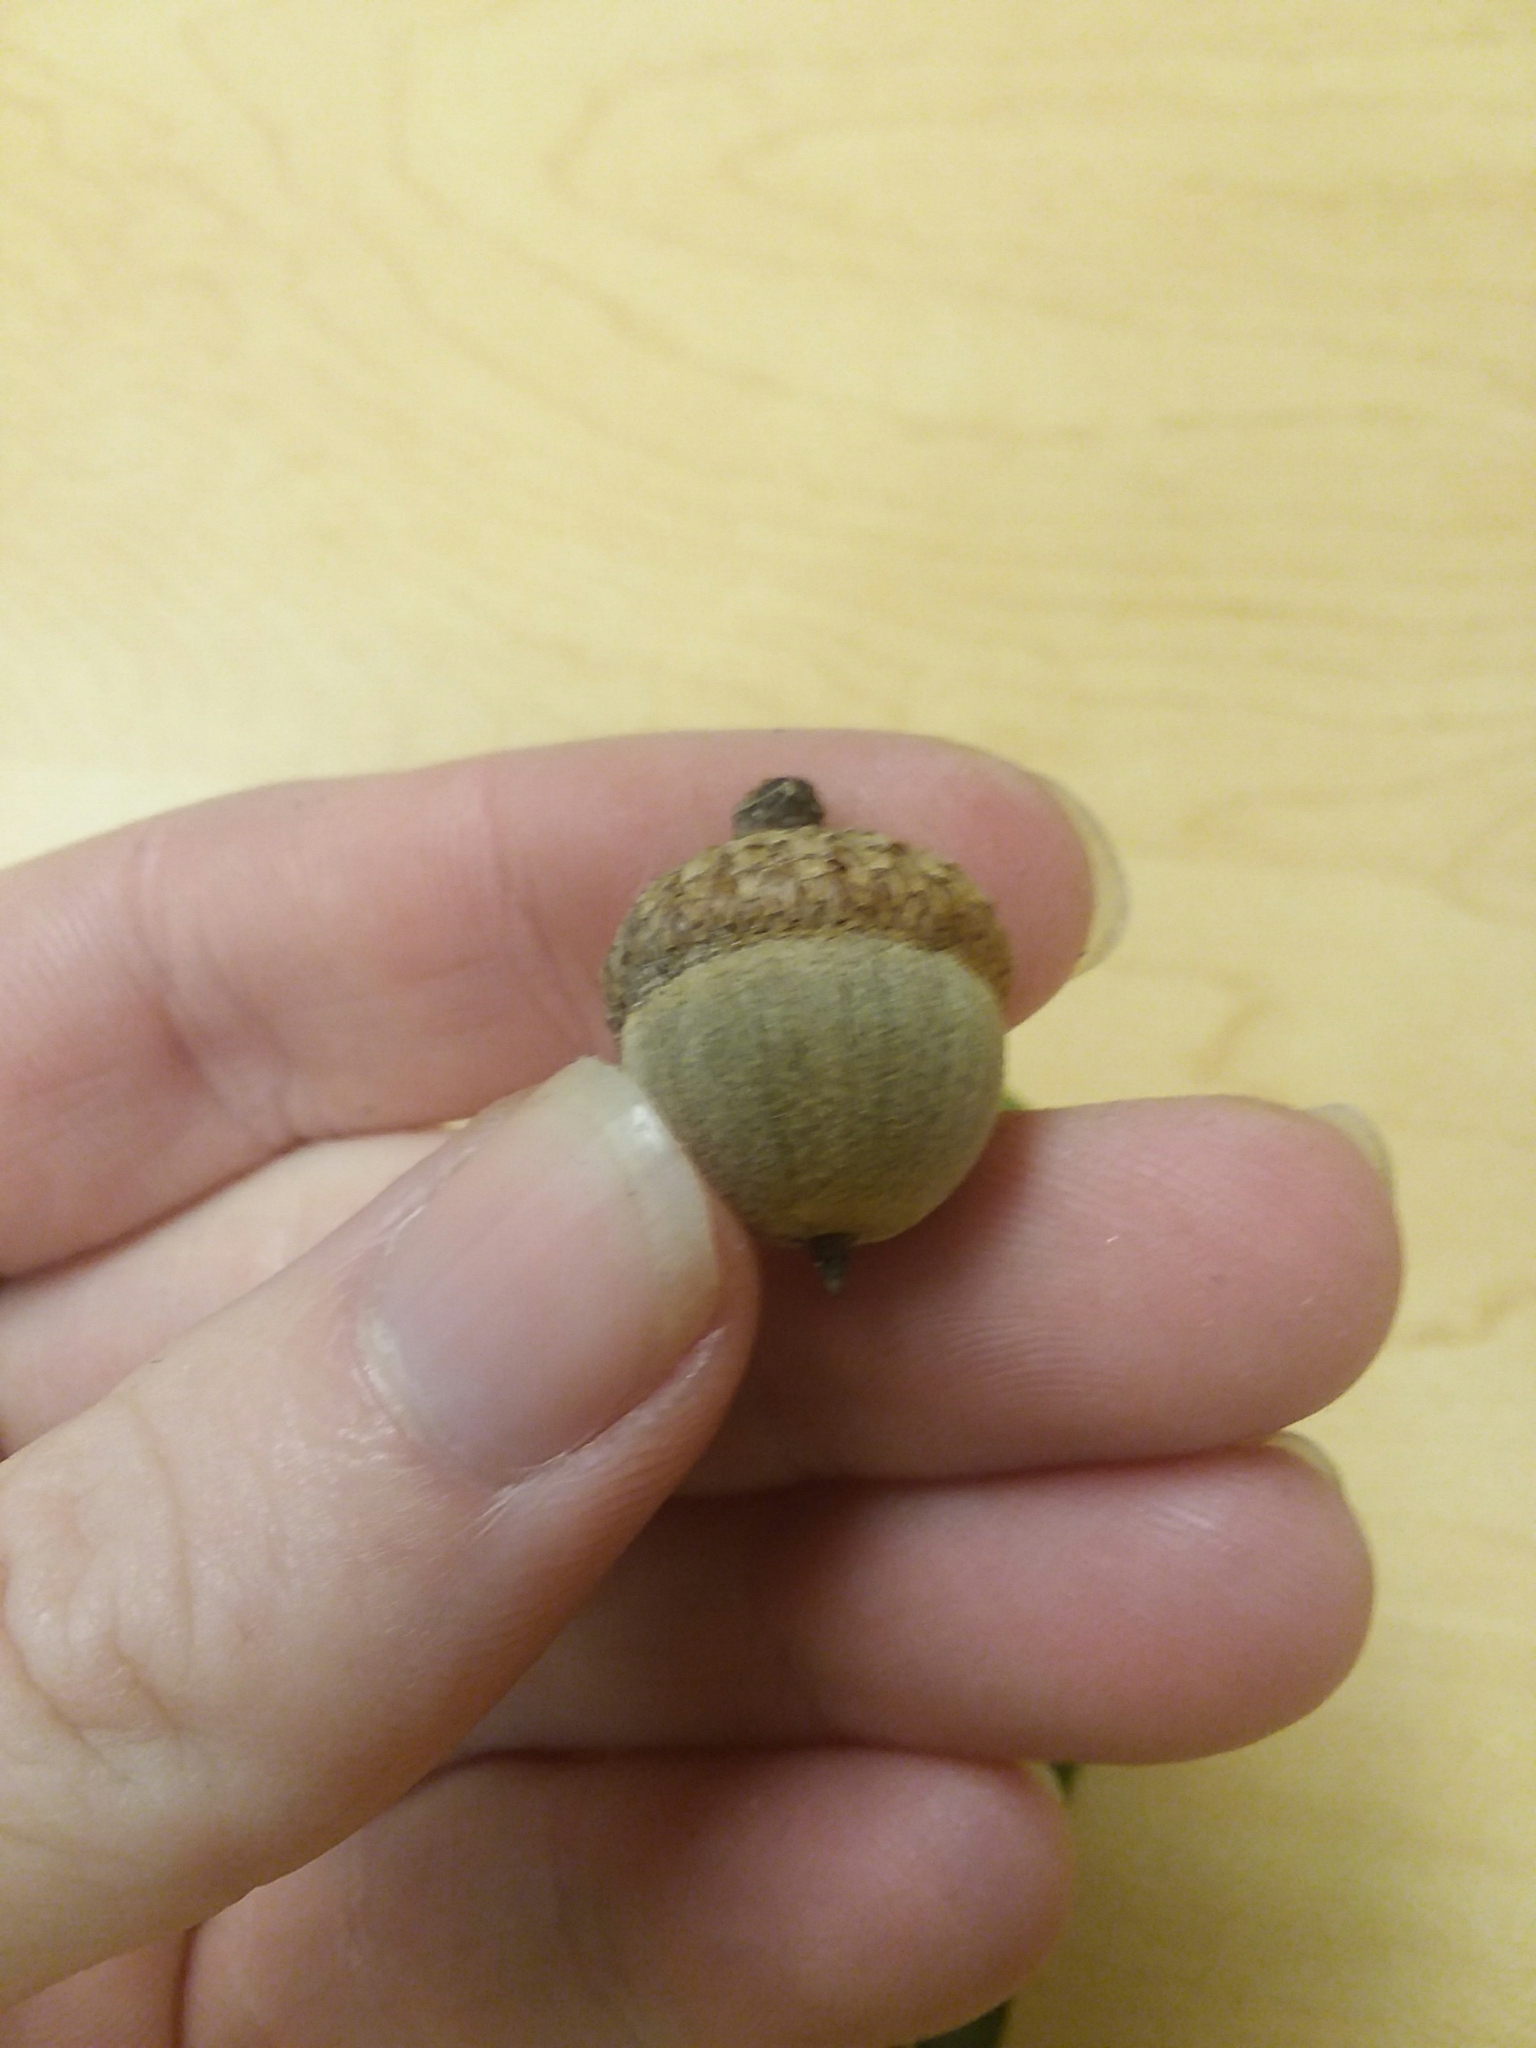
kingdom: Plantae
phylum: Tracheophyta
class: Magnoliopsida
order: Fagales
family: Fagaceae
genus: Quercus
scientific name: Quercus nigra
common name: Water oak
